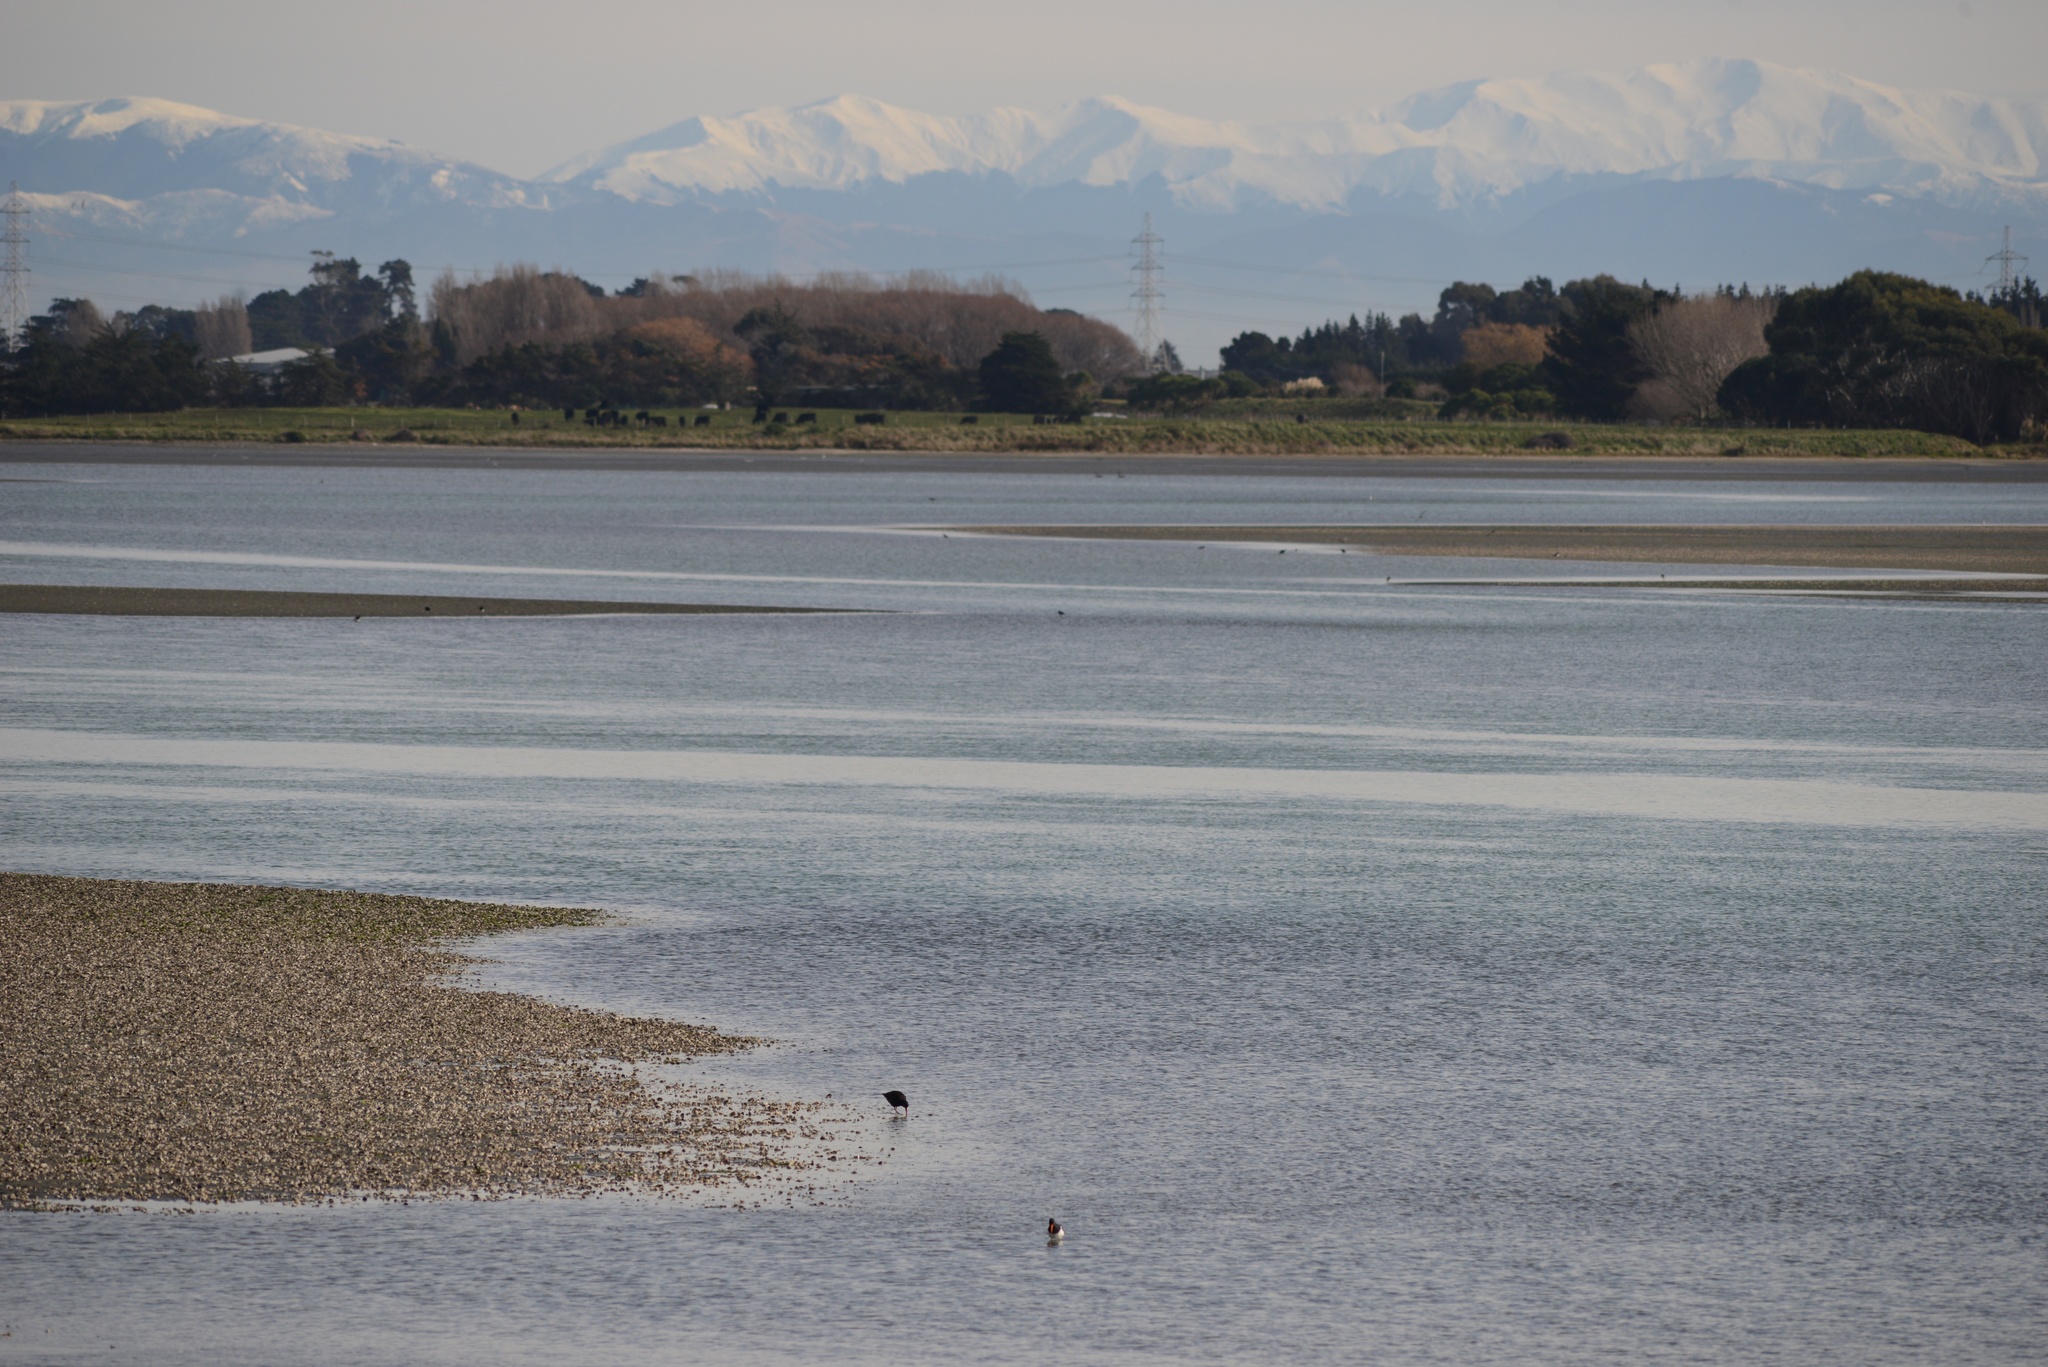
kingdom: Animalia
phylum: Chordata
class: Aves
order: Charadriiformes
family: Haematopodidae
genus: Haematopus
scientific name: Haematopus unicolor
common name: Variable oystercatcher
